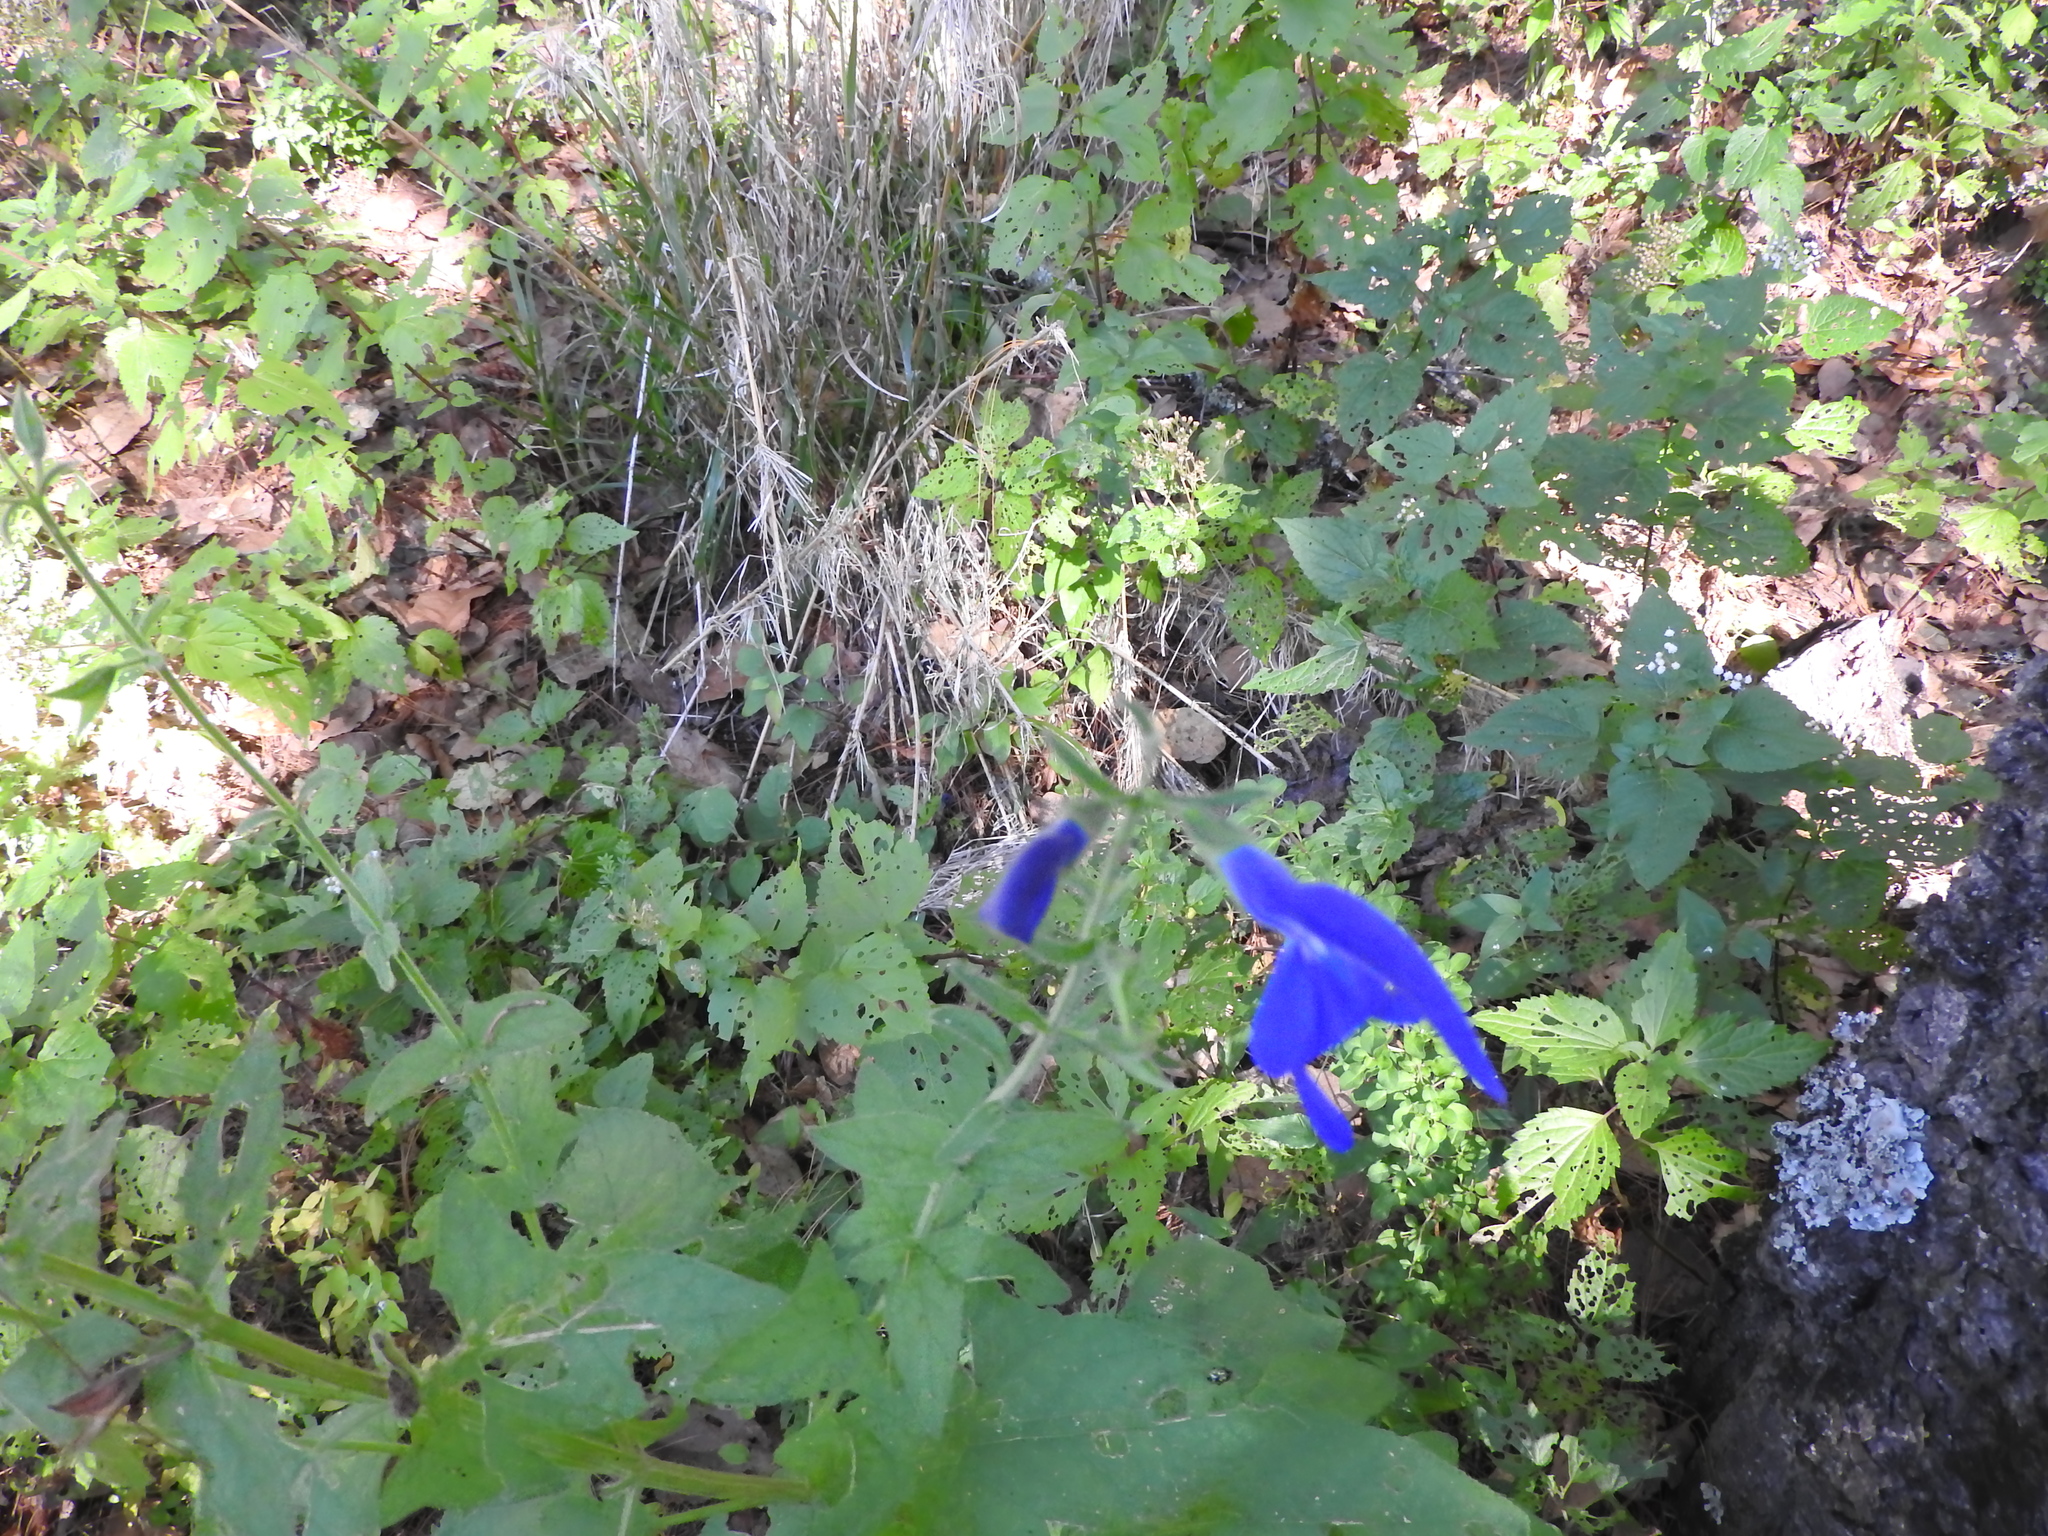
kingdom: Plantae
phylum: Tracheophyta
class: Magnoliopsida
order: Lamiales
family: Lamiaceae
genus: Salvia
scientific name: Salvia patens
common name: Blue sage
